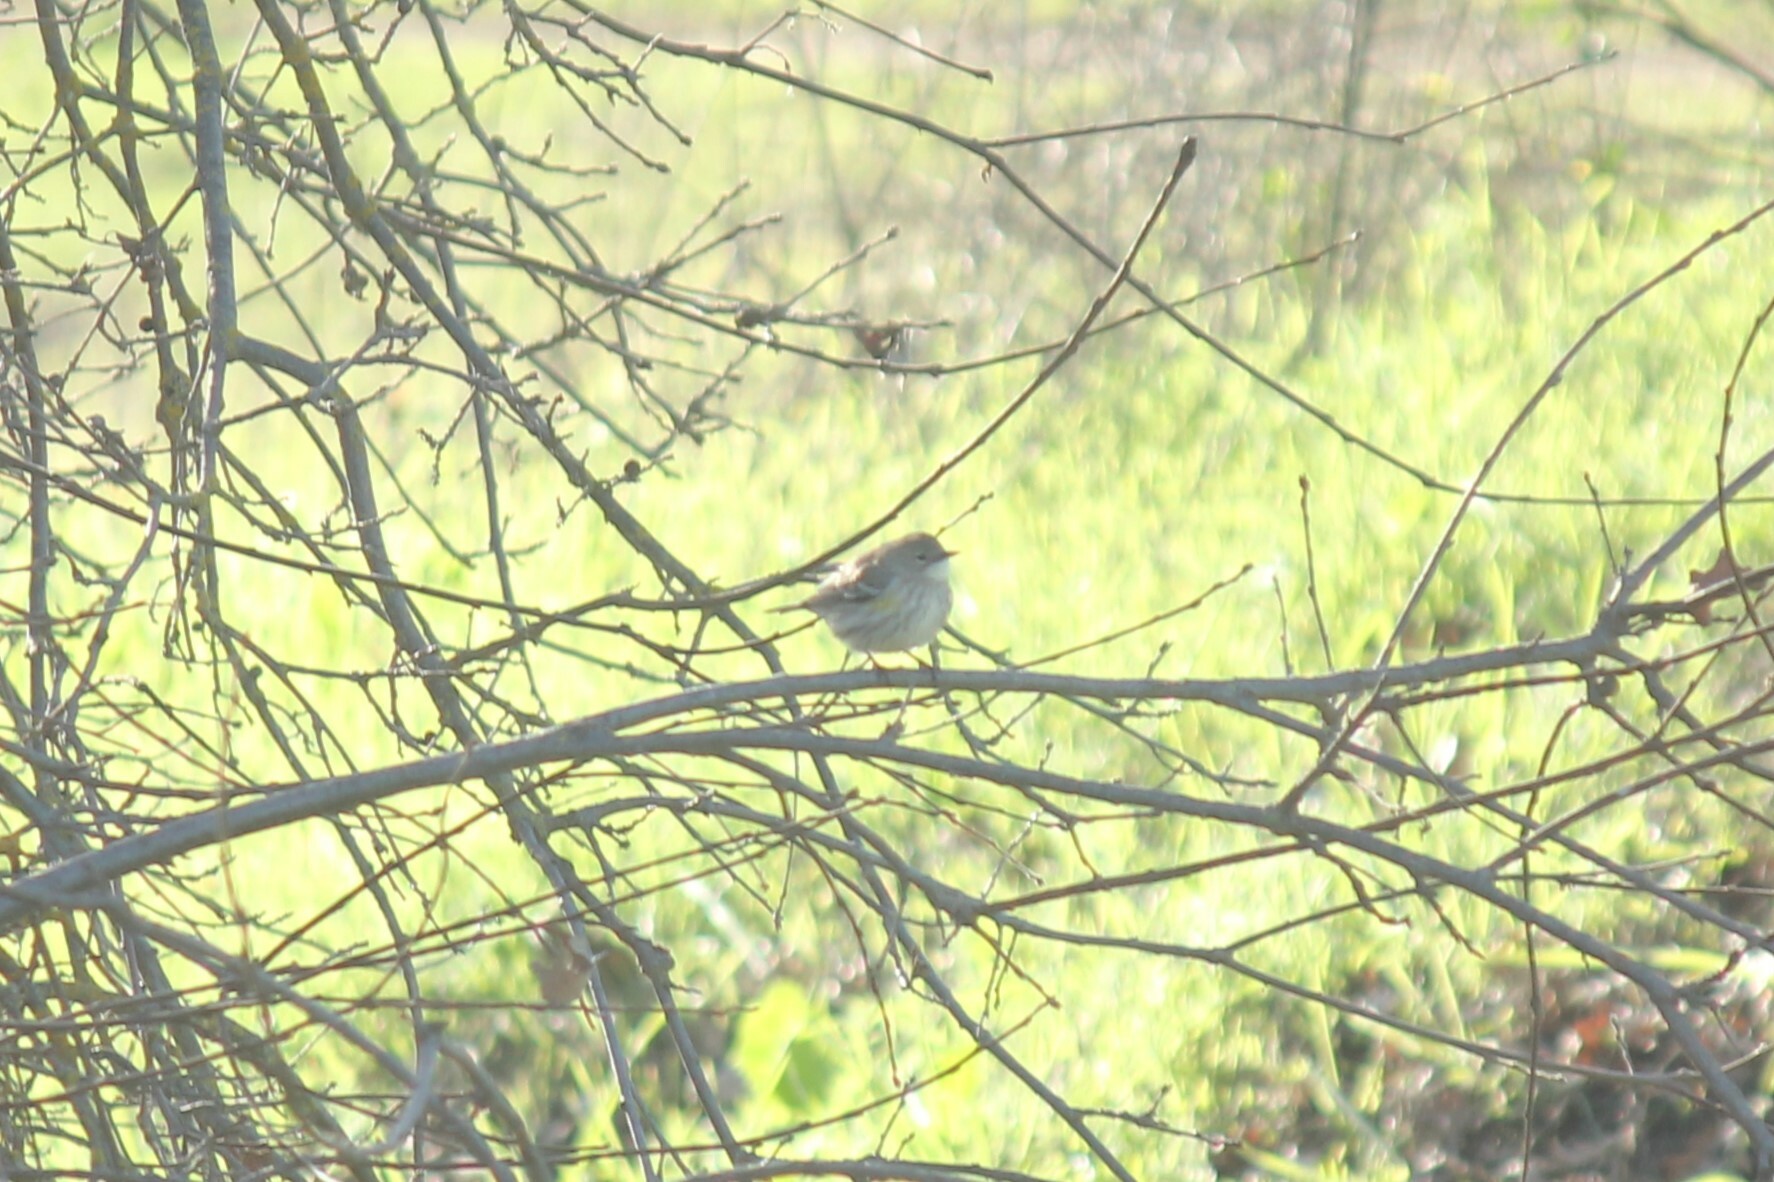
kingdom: Animalia
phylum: Chordata
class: Aves
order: Passeriformes
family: Parulidae
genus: Setophaga
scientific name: Setophaga coronata
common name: Myrtle warbler
